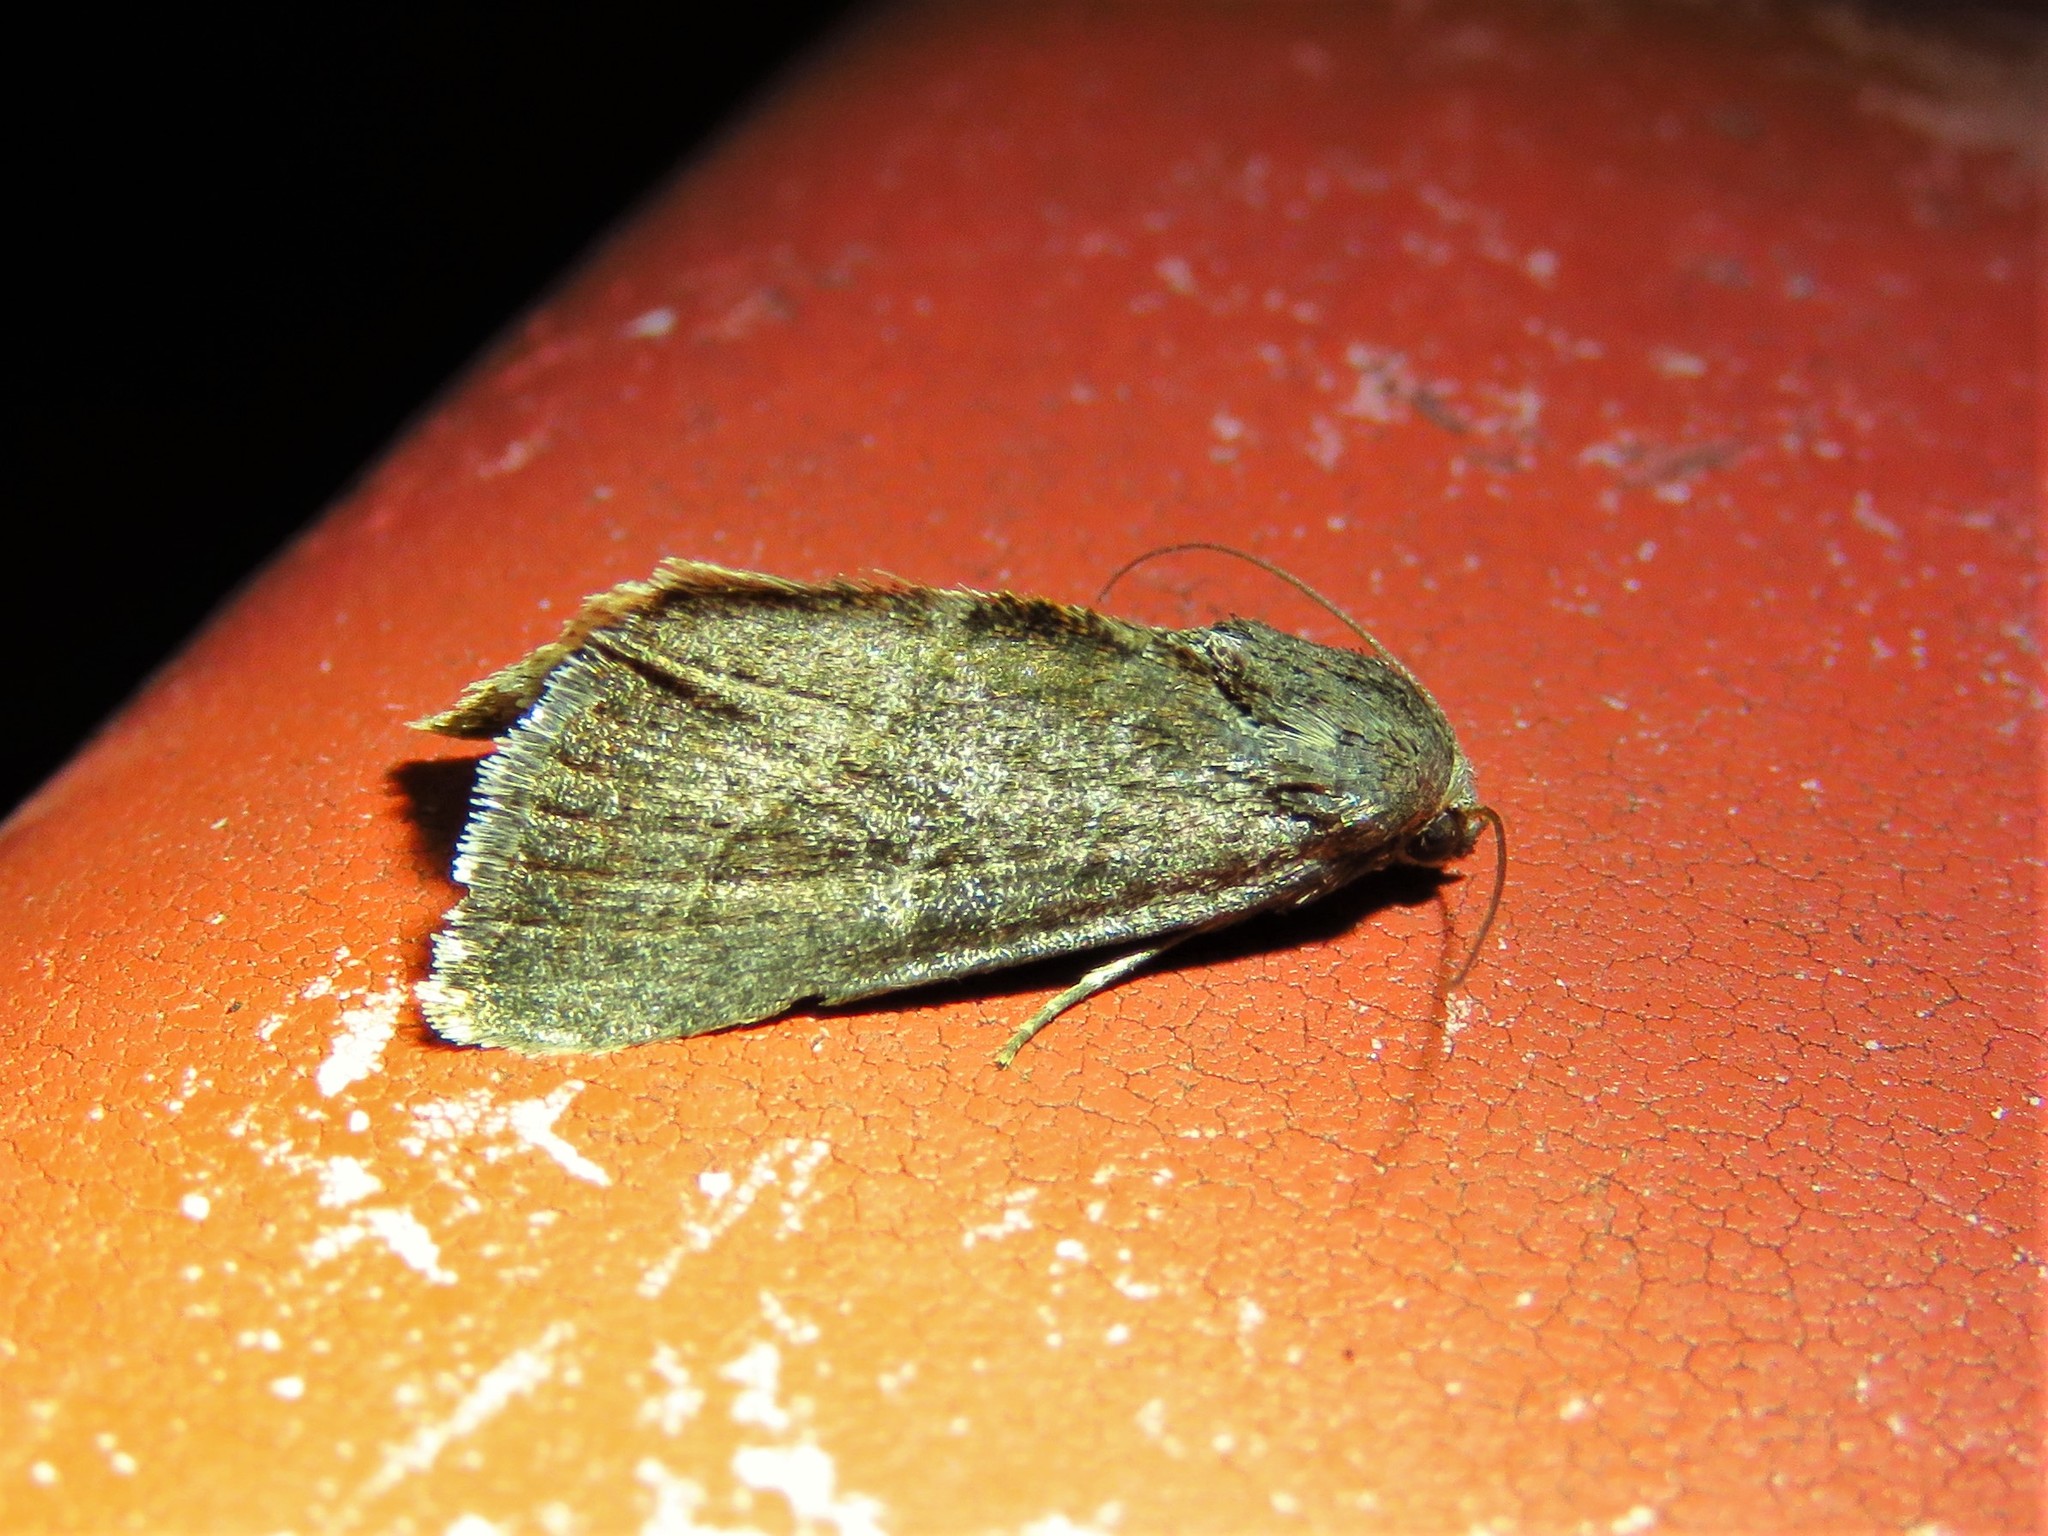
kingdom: Animalia
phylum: Arthropoda
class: Insecta
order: Lepidoptera
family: Noctuidae
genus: Galgula
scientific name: Galgula partita
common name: Wedgeling
